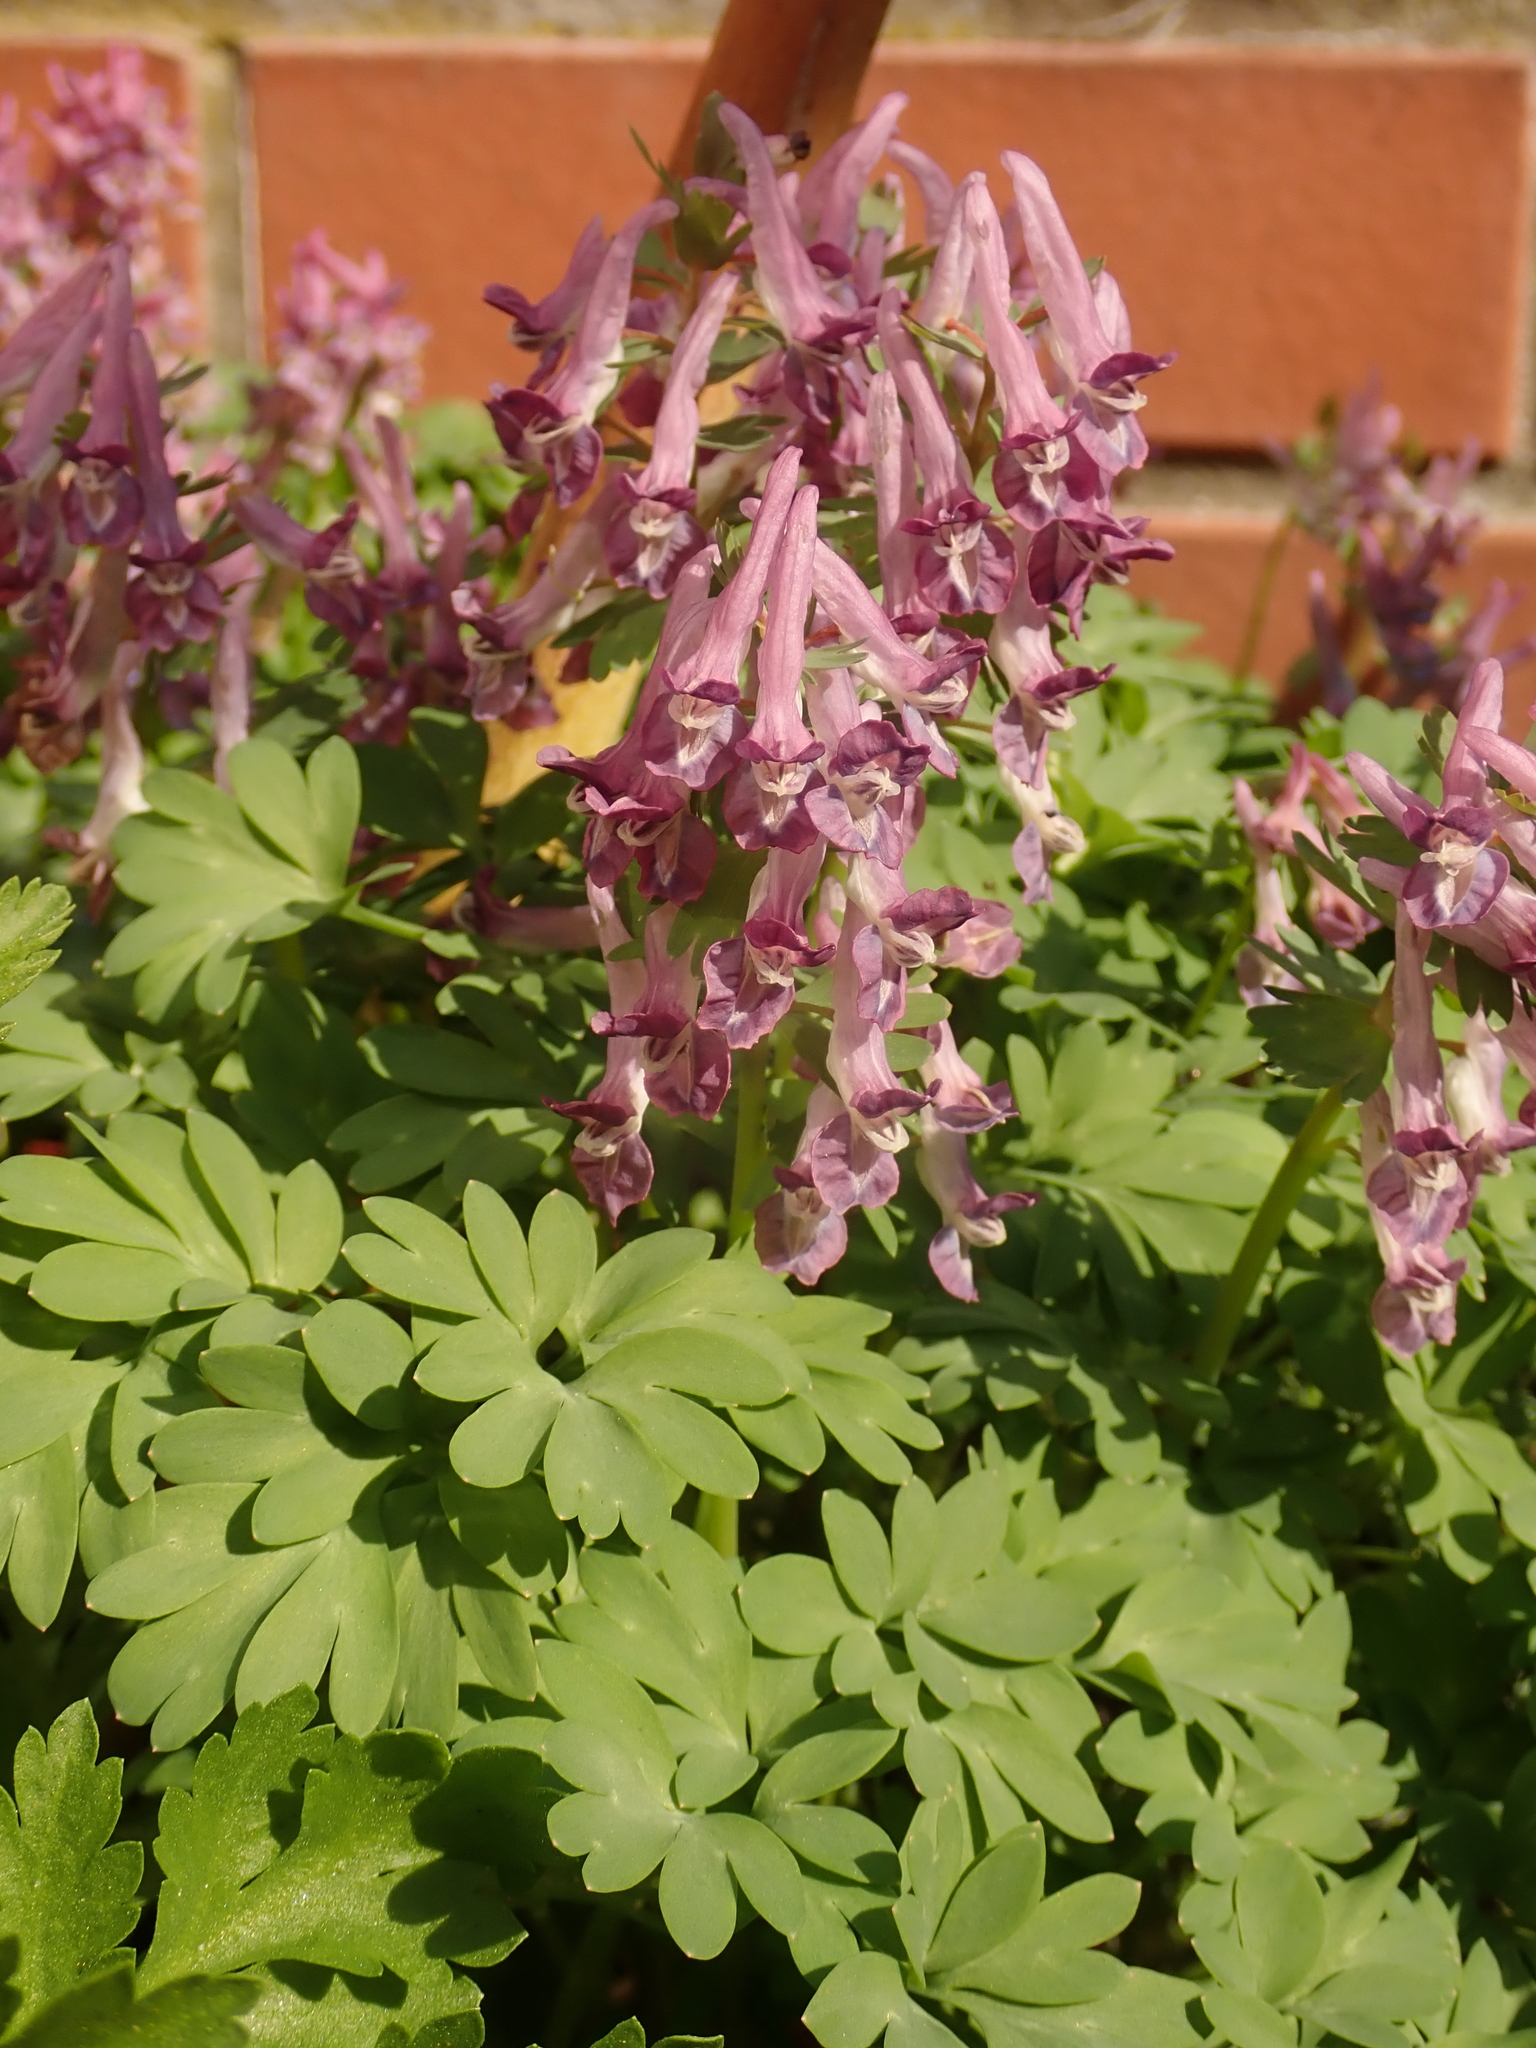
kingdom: Plantae
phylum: Tracheophyta
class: Magnoliopsida
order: Ranunculales
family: Papaveraceae
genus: Corydalis
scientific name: Corydalis solida
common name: Bird-in-a-bush
